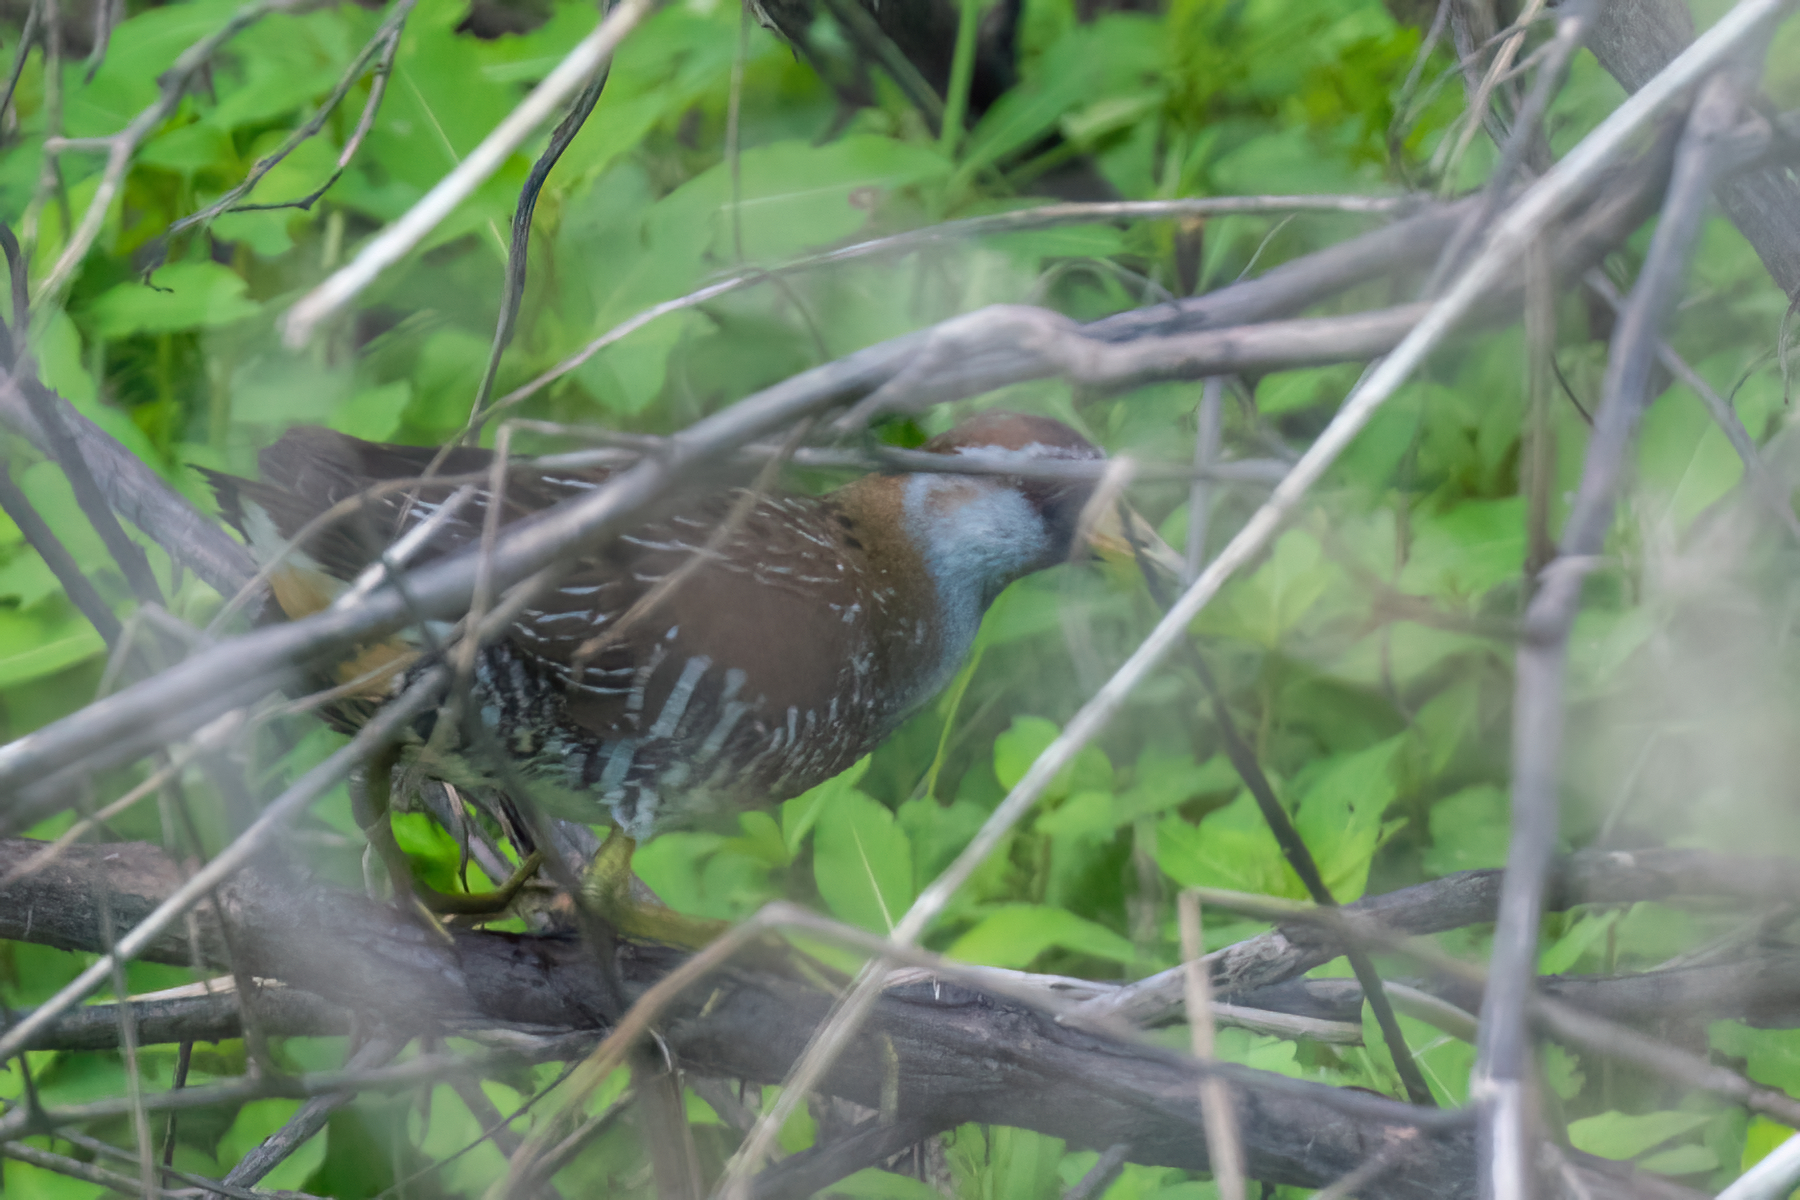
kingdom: Animalia
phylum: Chordata
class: Aves
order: Gruiformes
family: Rallidae
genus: Porzana
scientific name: Porzana carolina
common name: Sora
